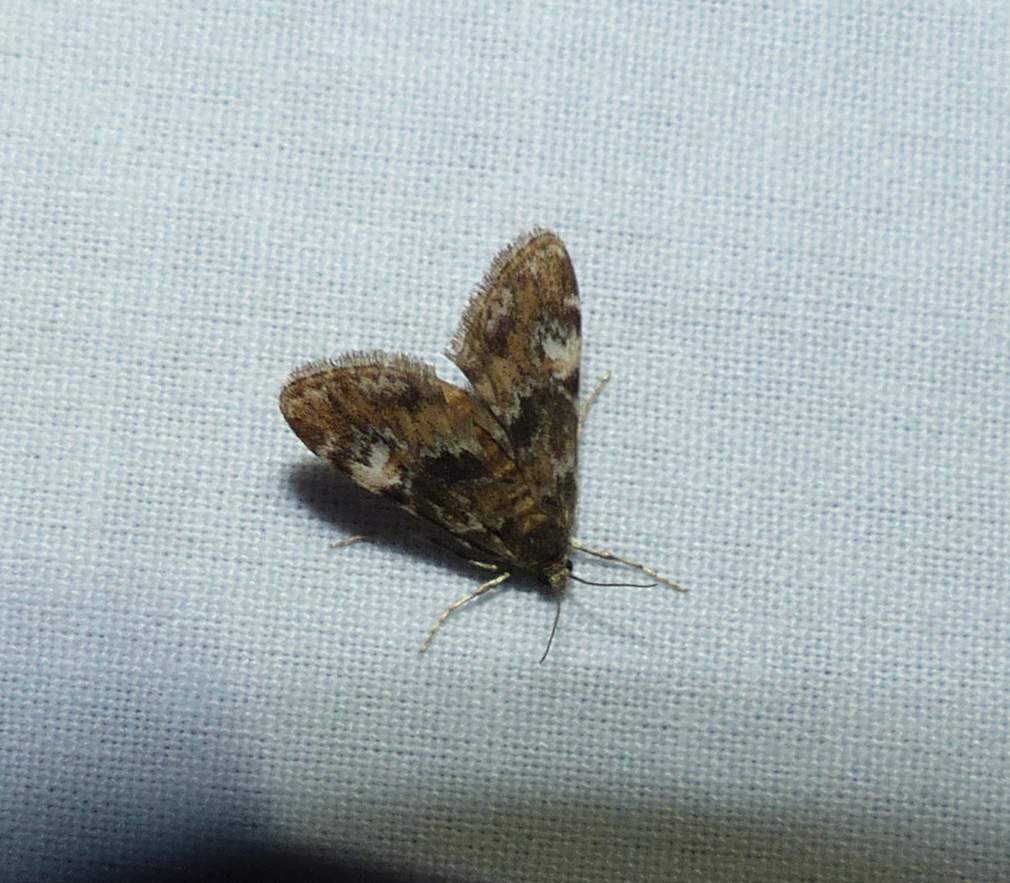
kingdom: Animalia
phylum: Arthropoda
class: Insecta
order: Lepidoptera
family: Crambidae
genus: Elophila
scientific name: Elophila obliteralis
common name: Waterlily leafcutter moth
